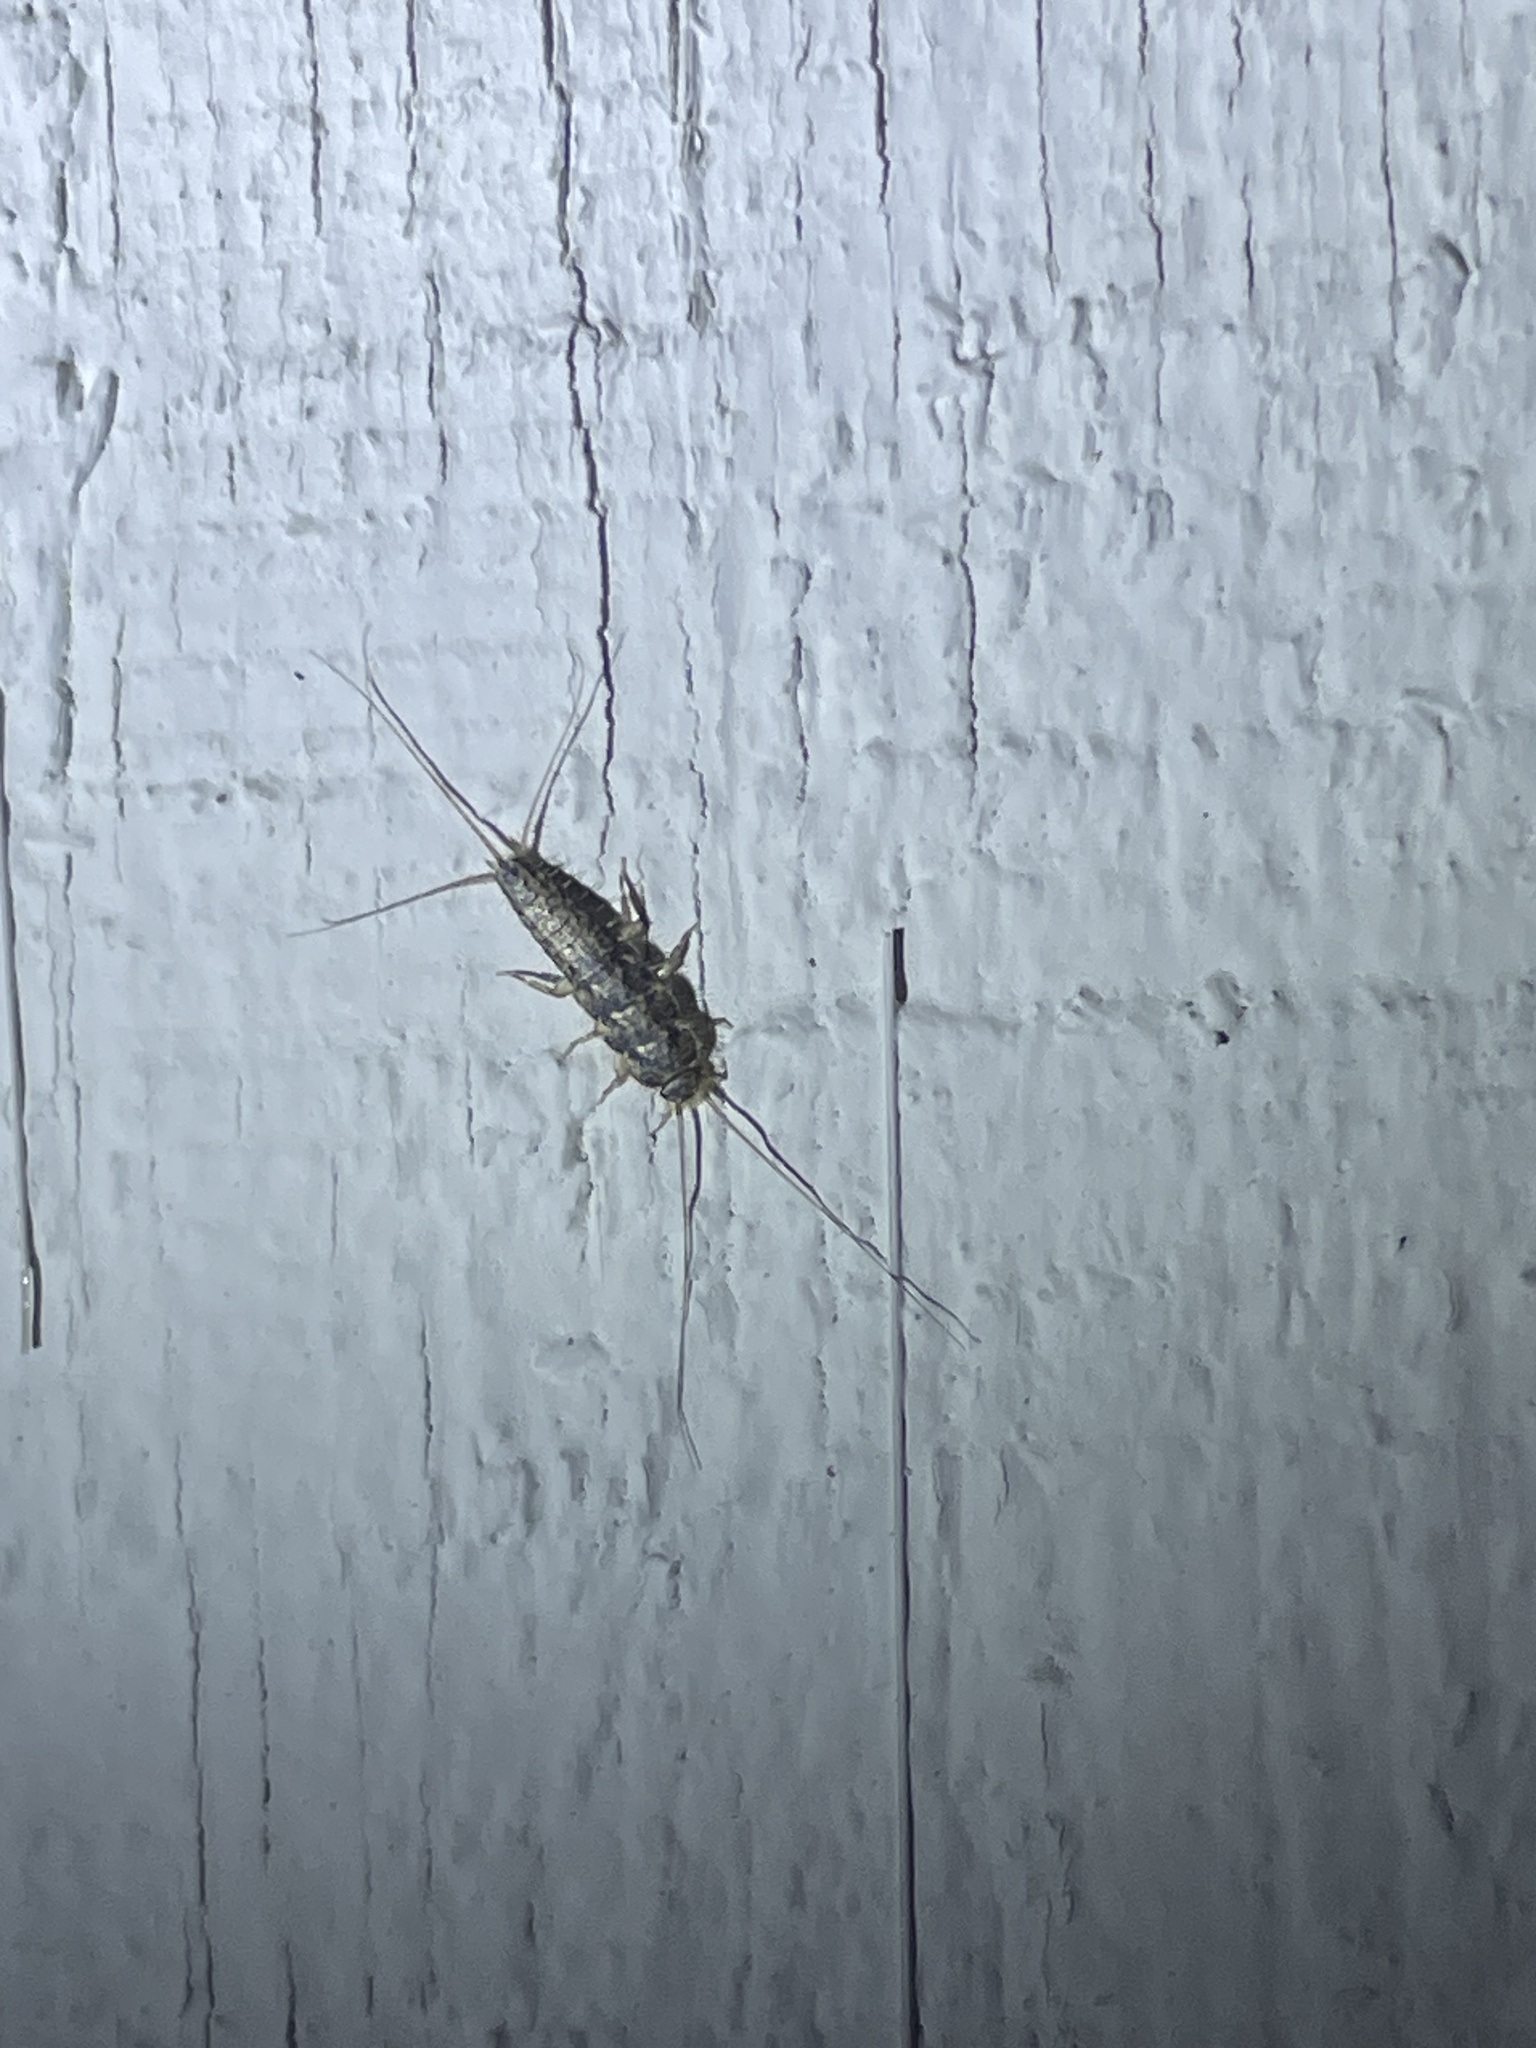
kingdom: Animalia
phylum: Arthropoda
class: Insecta
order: Zygentoma
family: Lepismatidae
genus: Ctenolepisma
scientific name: Ctenolepisma lineata
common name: Four-lined silverfish
